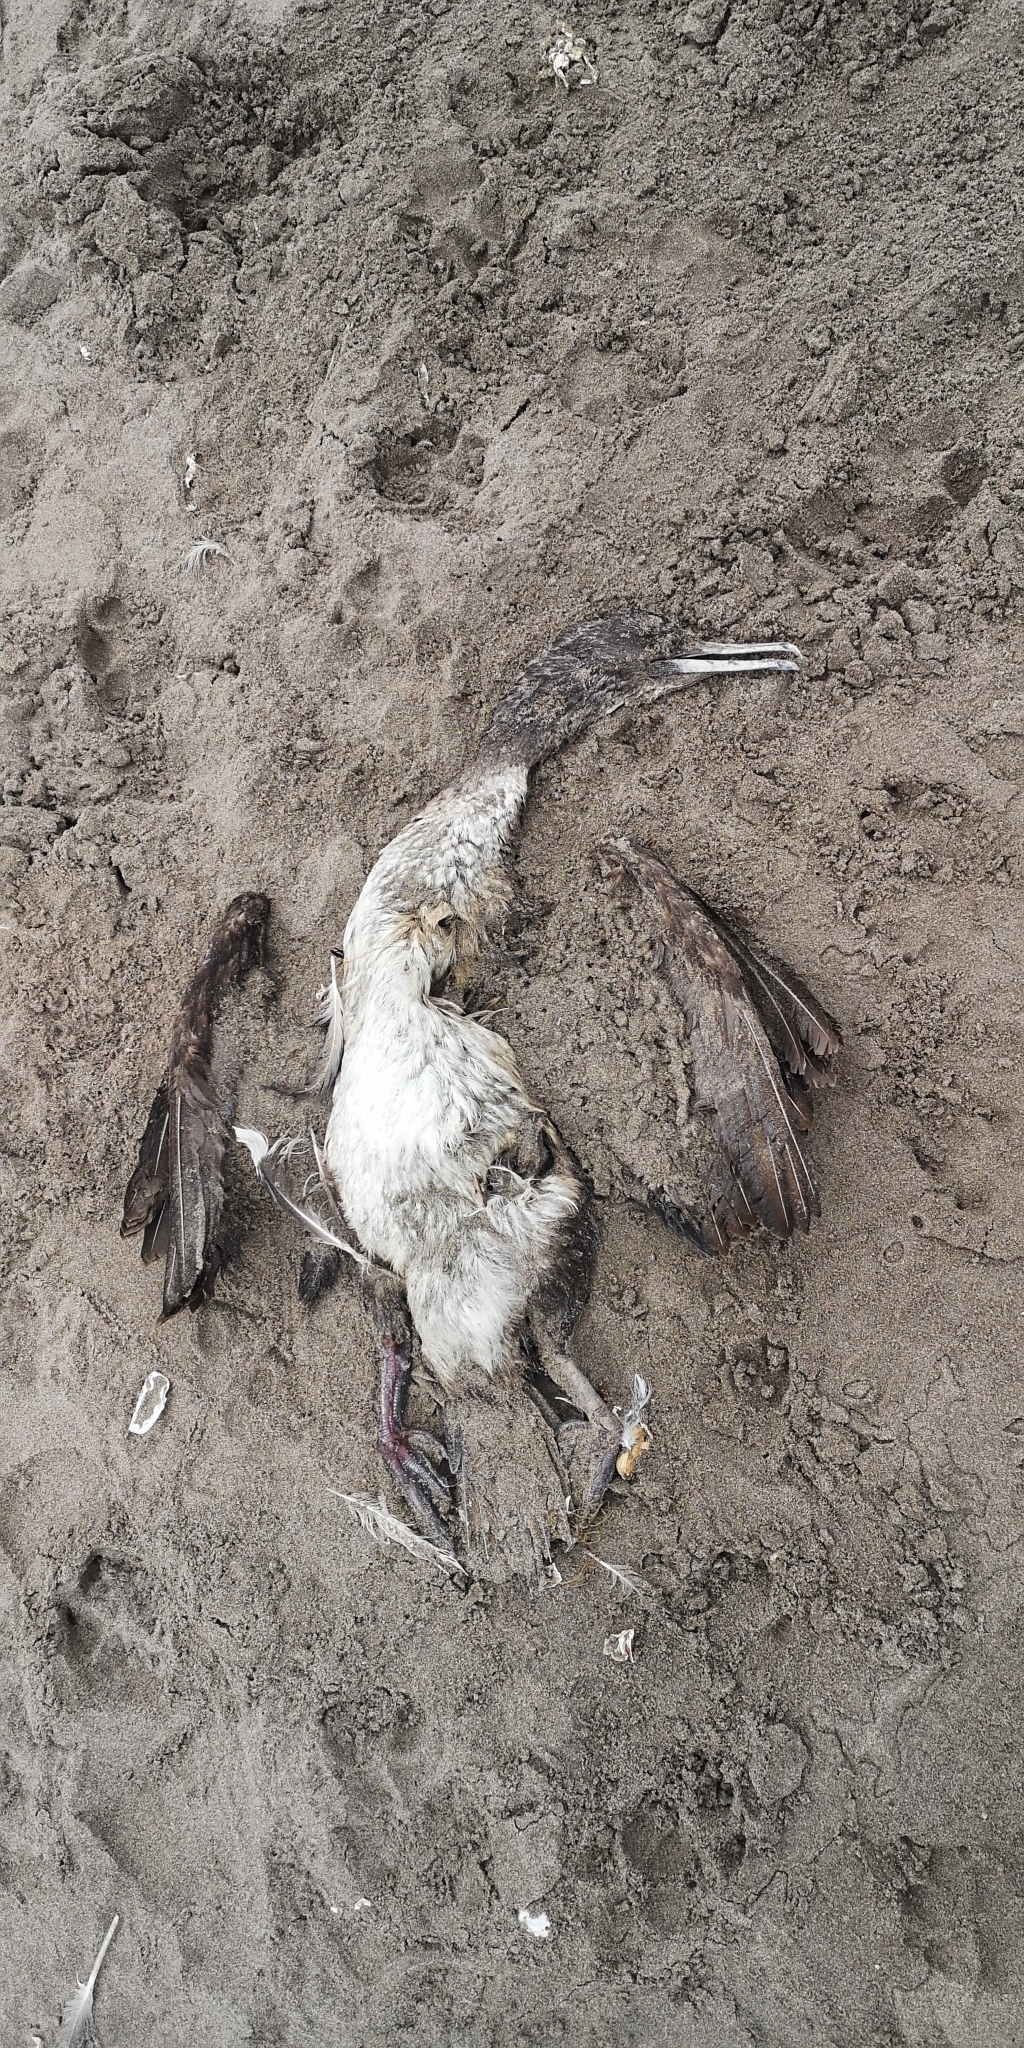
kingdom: Animalia
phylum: Chordata
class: Aves
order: Suliformes
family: Phalacrocoracidae
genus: Leucocarbo
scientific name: Leucocarbo bougainvillii
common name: Guanay cormorant
